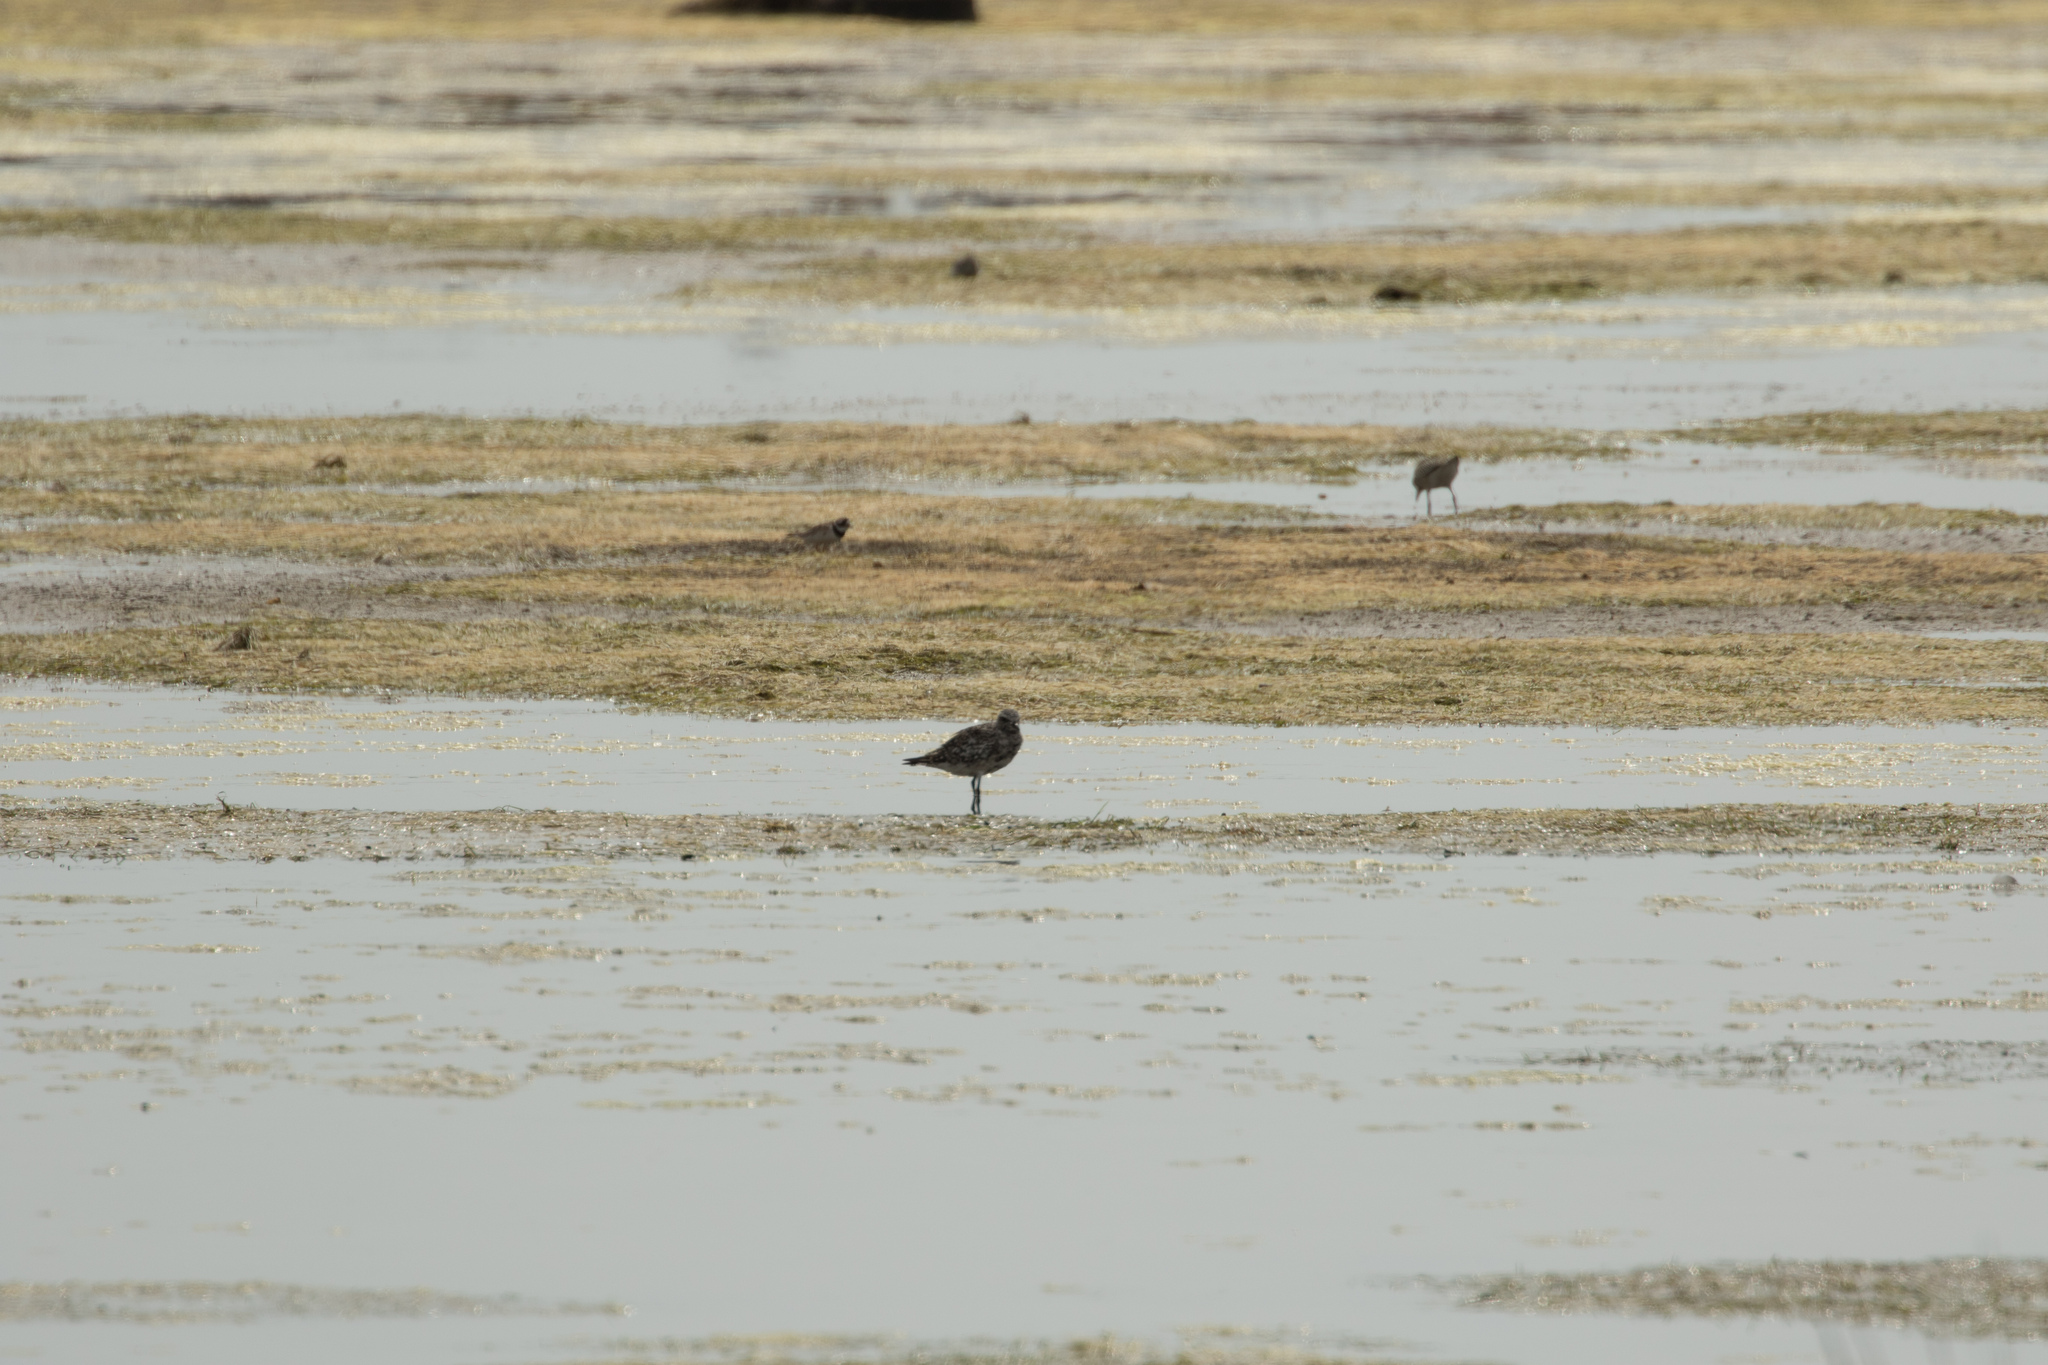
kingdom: Animalia
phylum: Chordata
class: Aves
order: Charadriiformes
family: Charadriidae
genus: Pluvialis
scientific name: Pluvialis squatarola
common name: Grey plover
